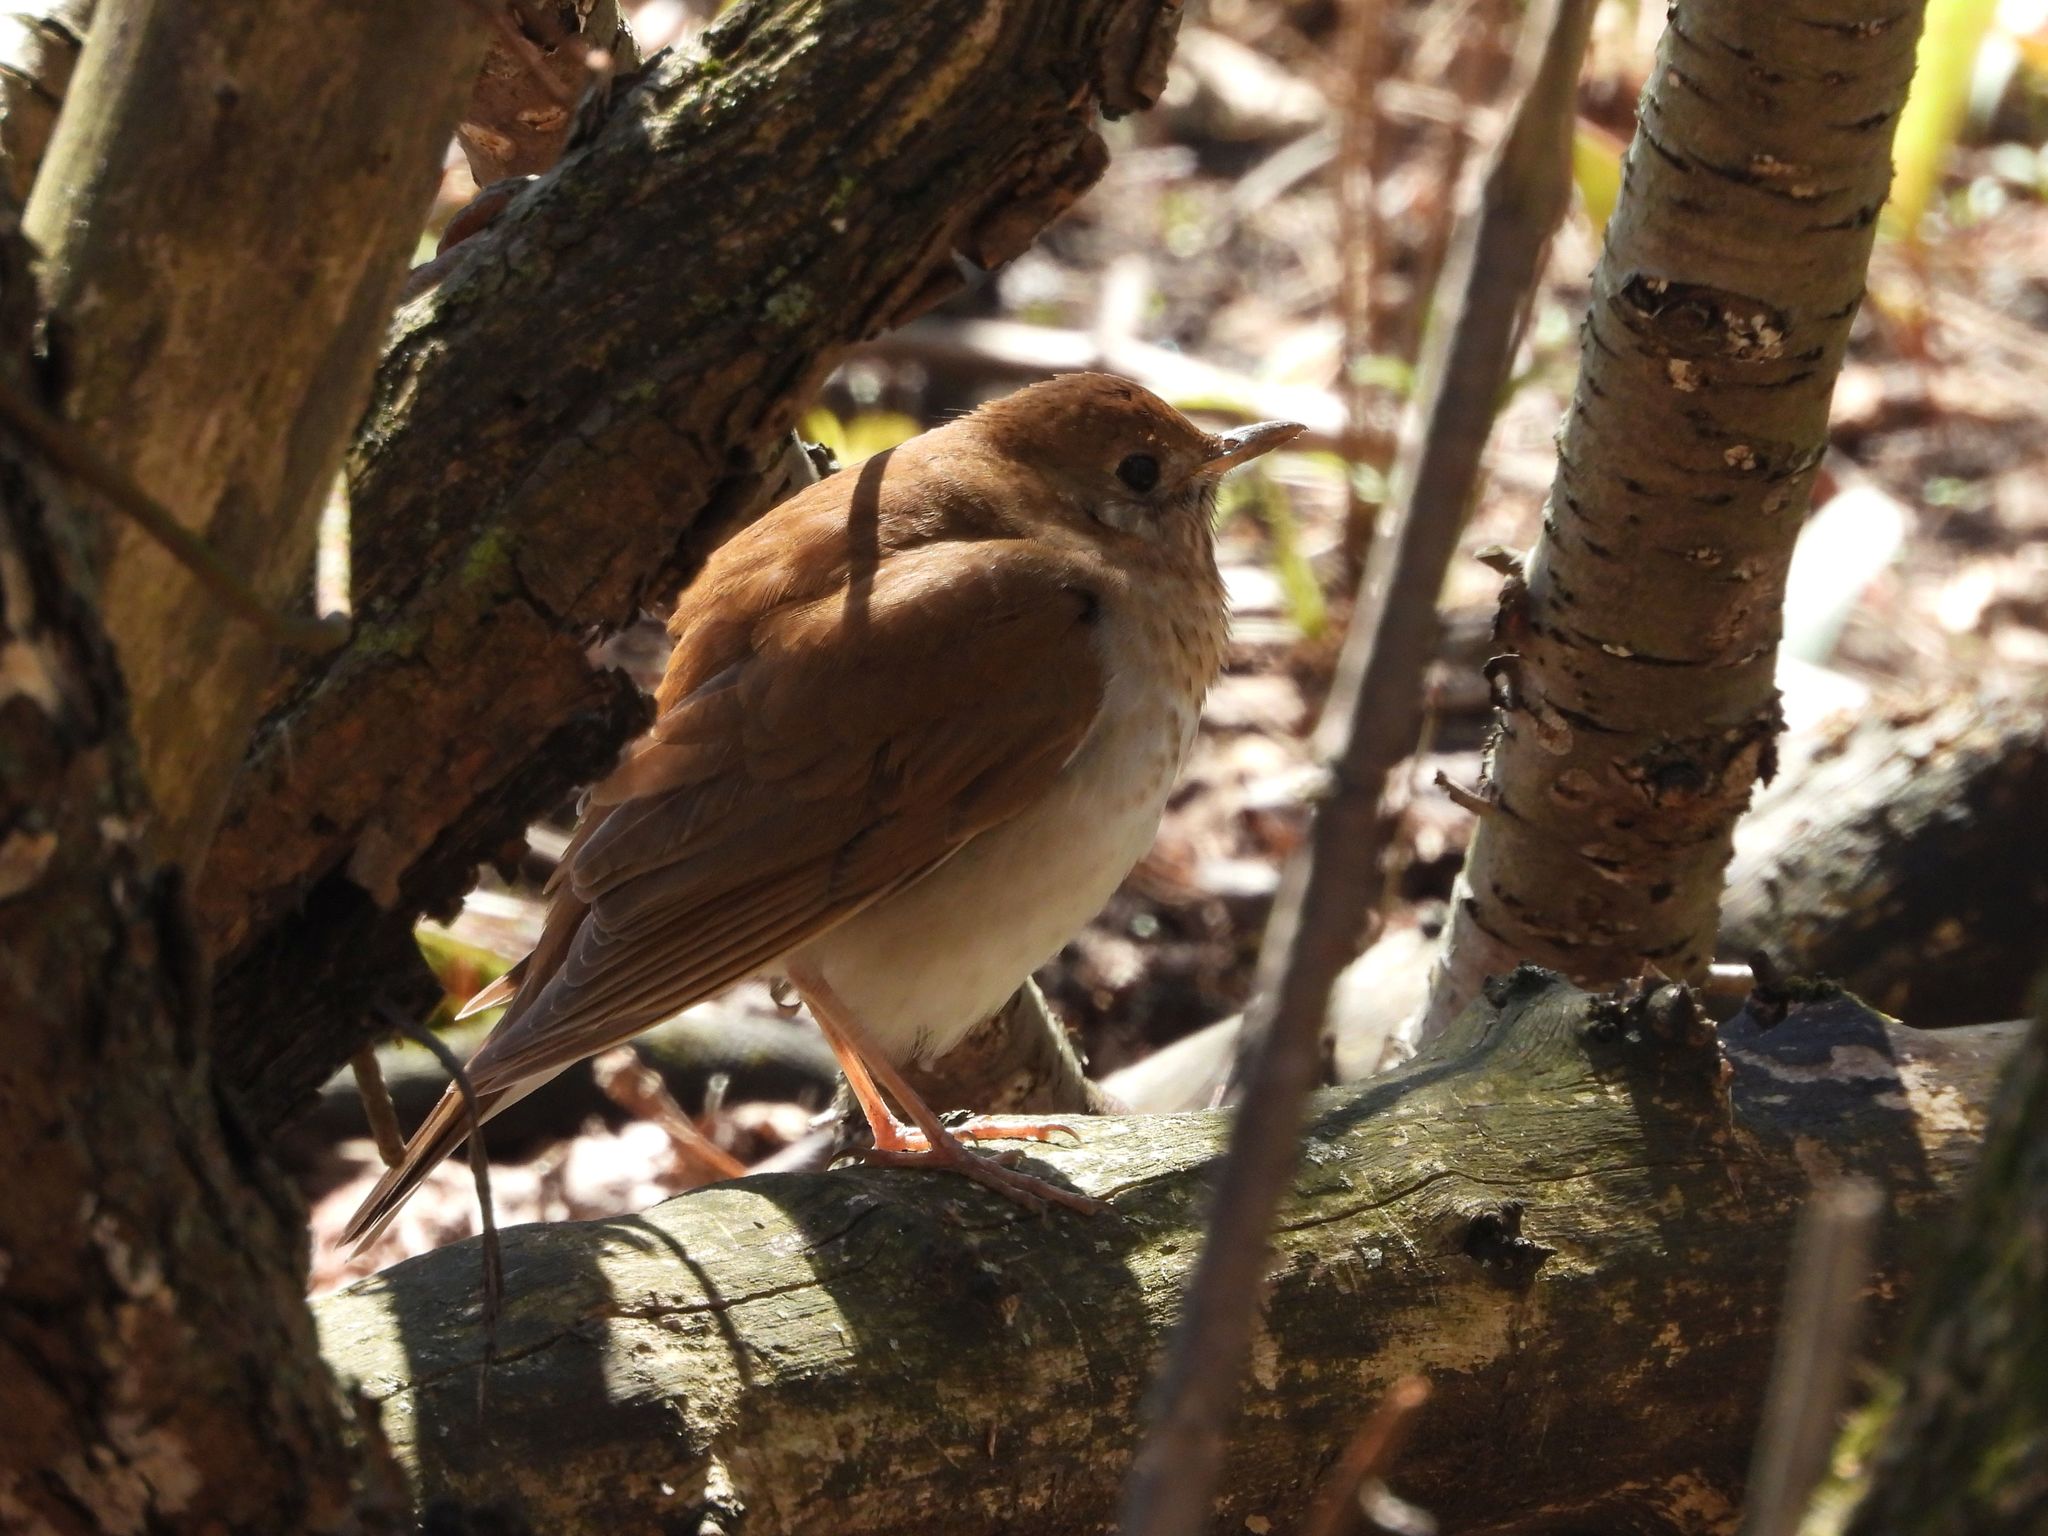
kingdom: Animalia
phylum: Chordata
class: Aves
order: Passeriformes
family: Turdidae
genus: Catharus
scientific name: Catharus fuscescens
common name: Veery
